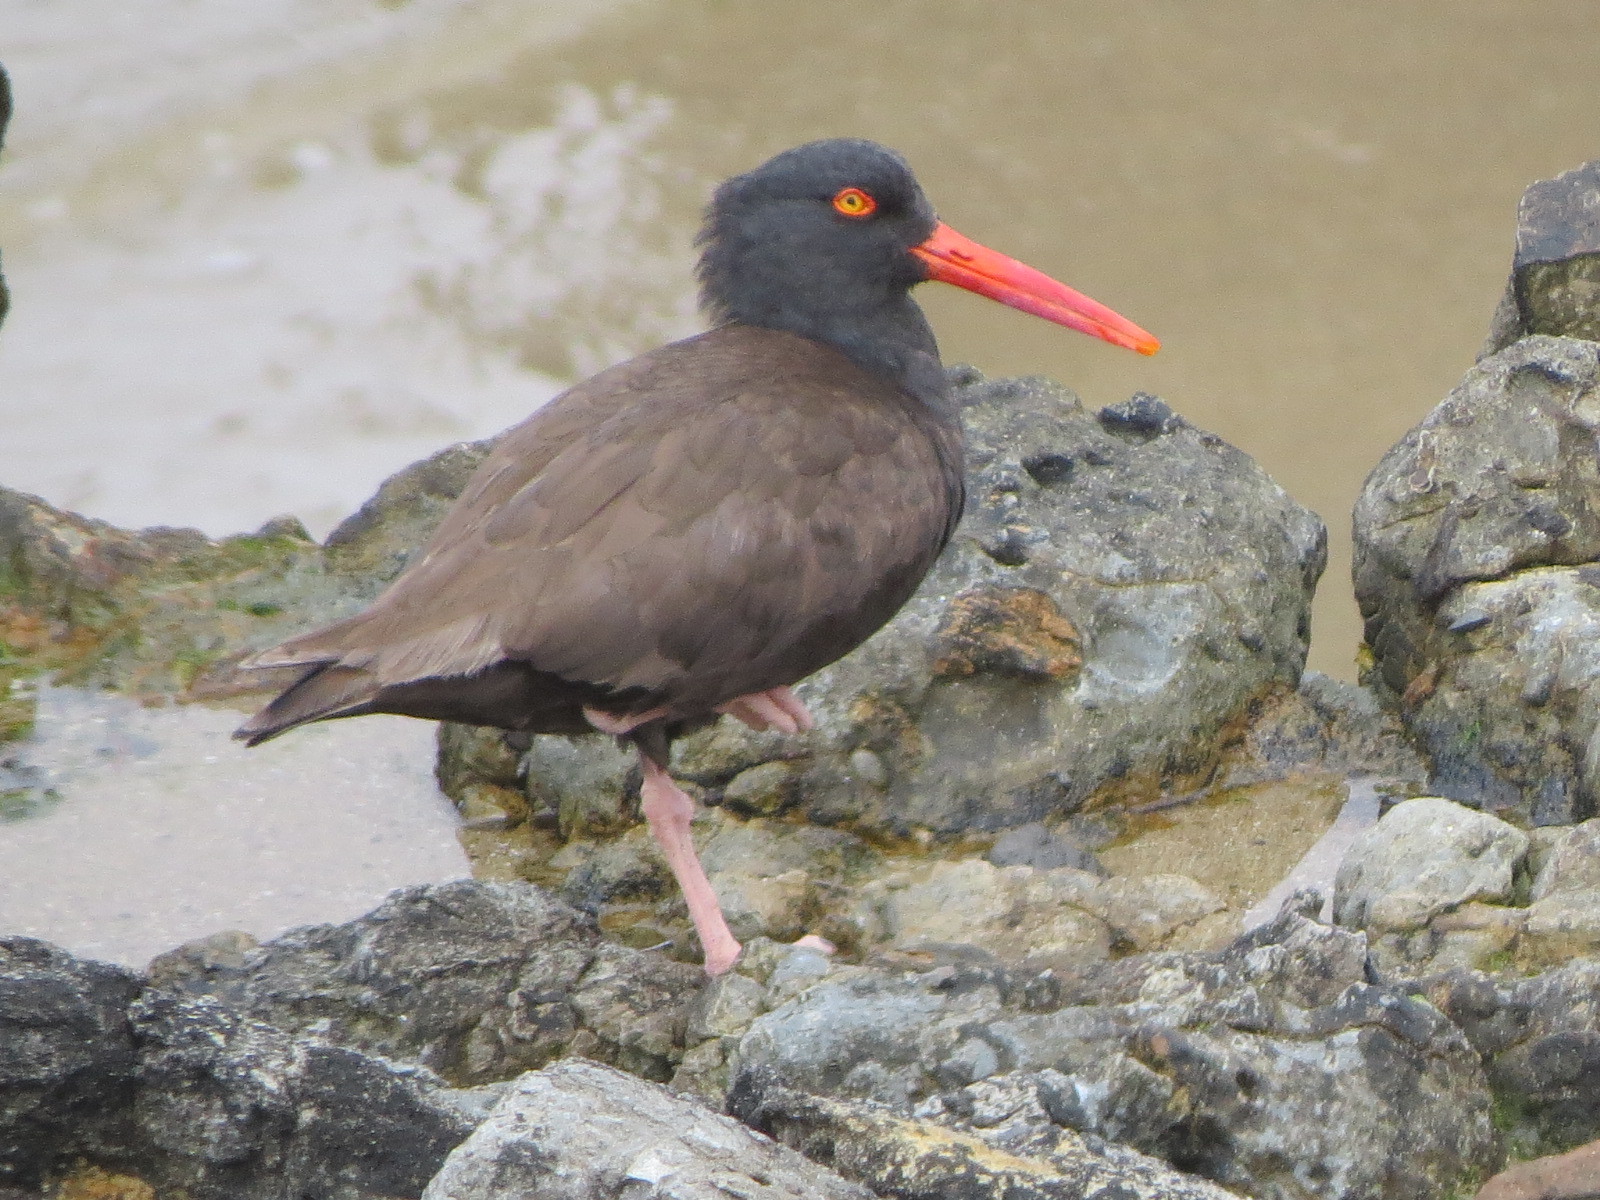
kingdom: Animalia
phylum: Chordata
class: Aves
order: Charadriiformes
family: Haematopodidae
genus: Haematopus
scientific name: Haematopus bachmani
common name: Black oystercatcher
